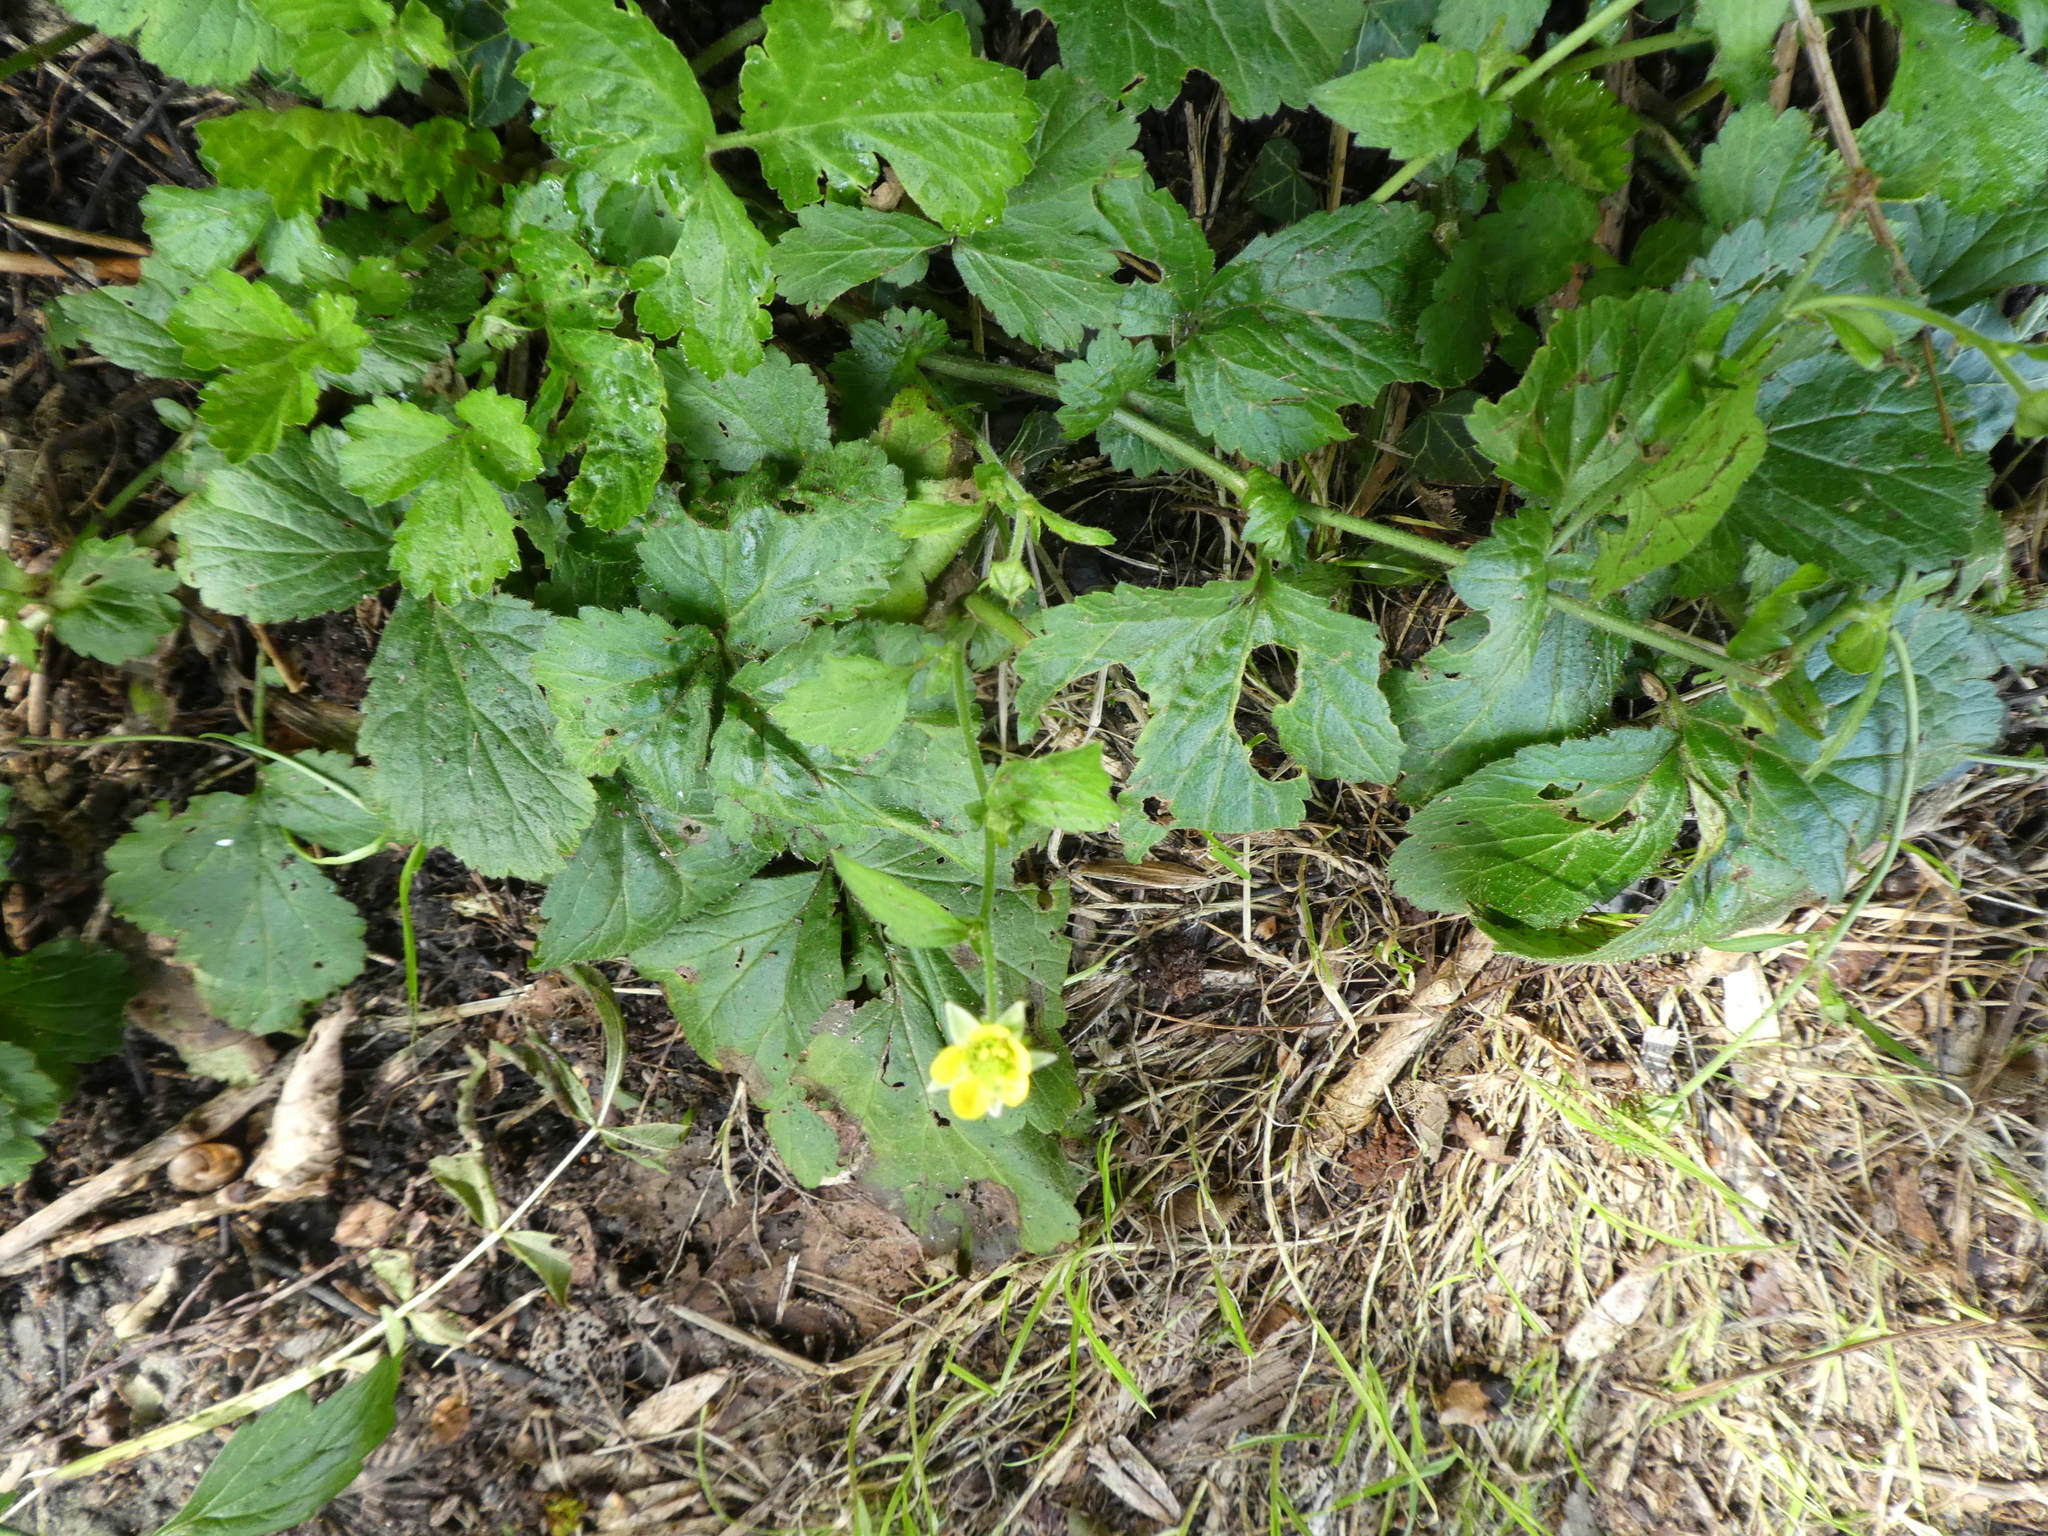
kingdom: Plantae
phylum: Tracheophyta
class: Magnoliopsida
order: Rosales
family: Rosaceae
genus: Geum
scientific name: Geum urbanum
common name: Wood avens
